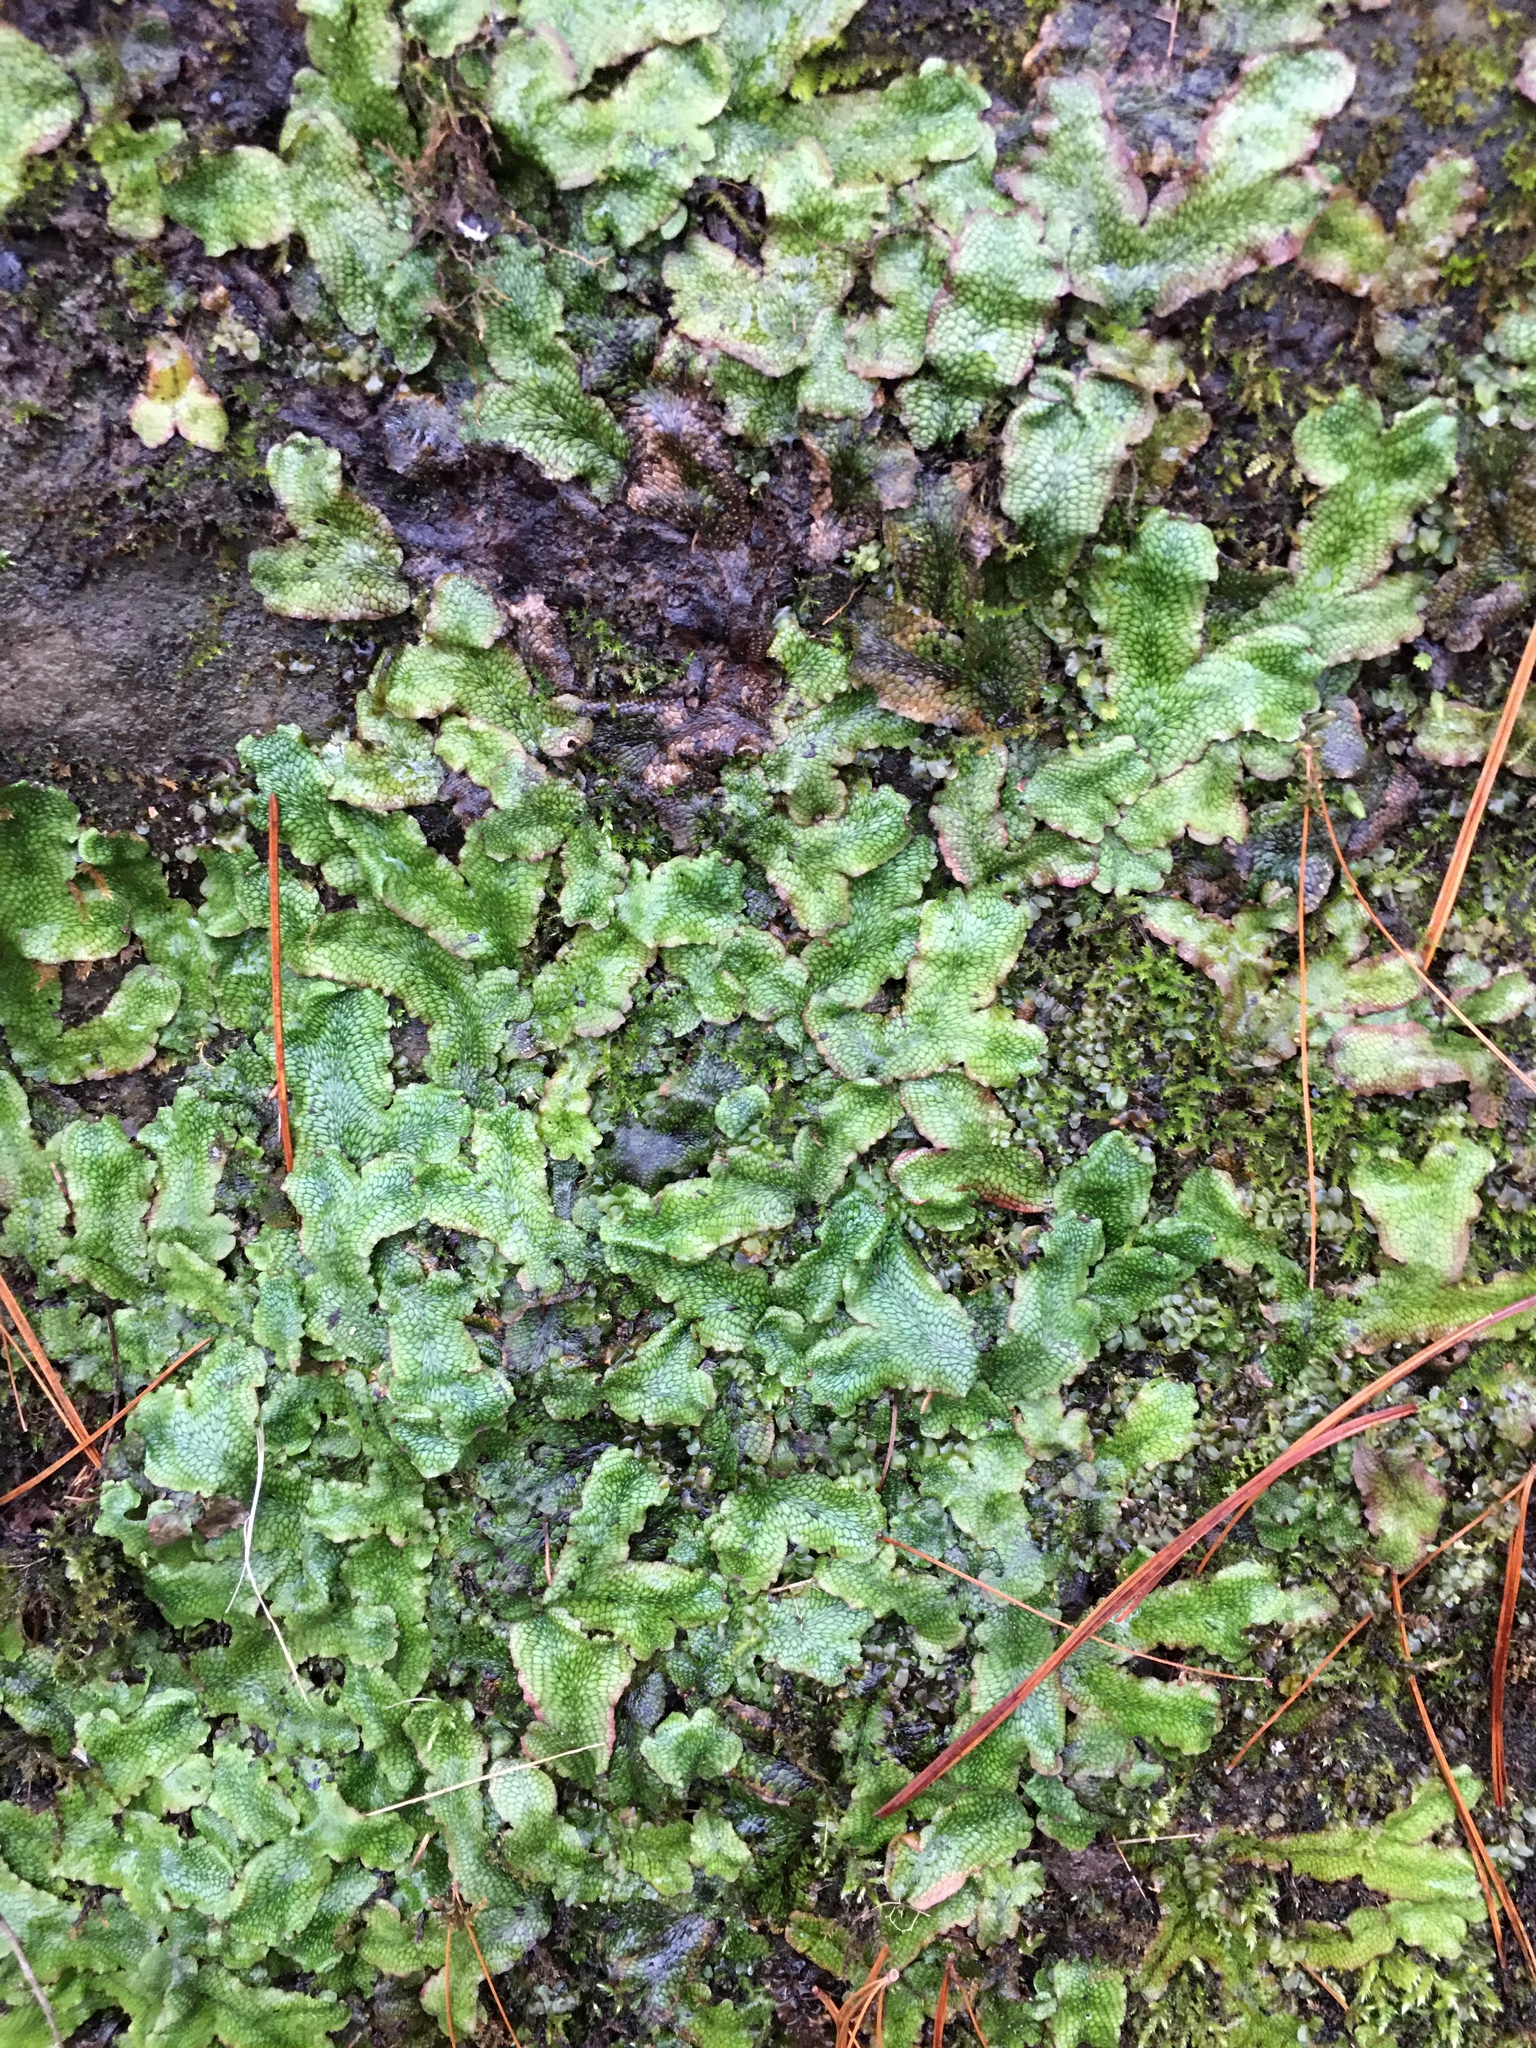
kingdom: Plantae
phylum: Marchantiophyta
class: Marchantiopsida
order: Marchantiales
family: Conocephalaceae
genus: Conocephalum
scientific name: Conocephalum salebrosum
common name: Cat-tongue liverwort
